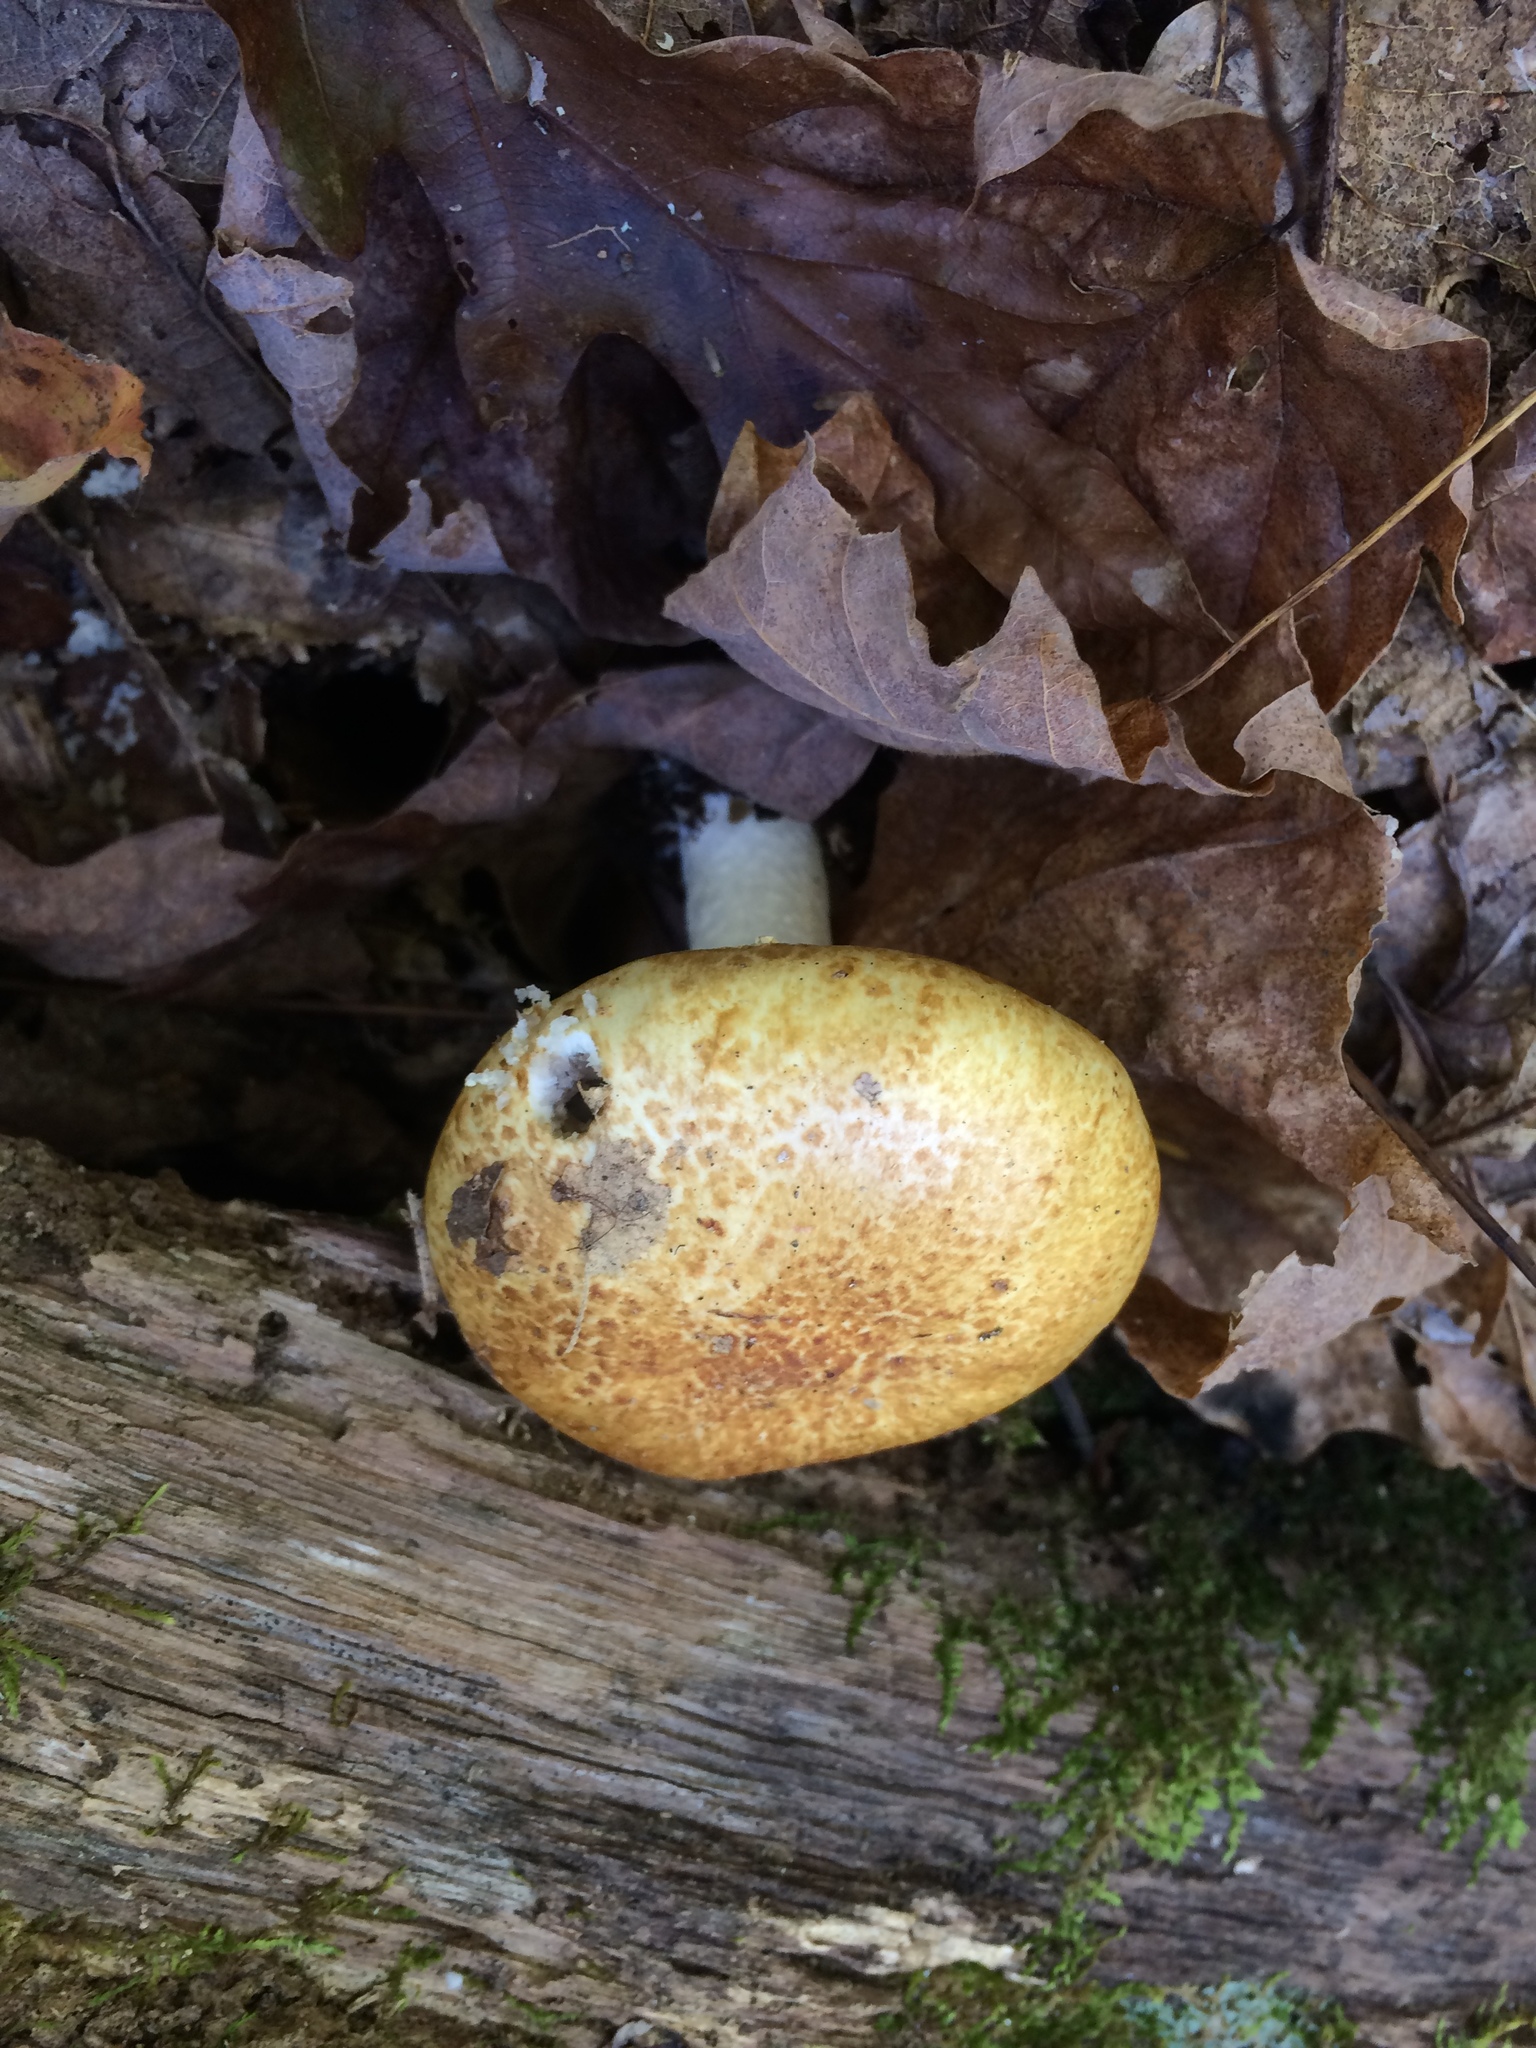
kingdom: Fungi
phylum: Basidiomycota
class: Agaricomycetes
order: Agaricales
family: Strophariaceae
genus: Stropharia
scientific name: Stropharia hardii
